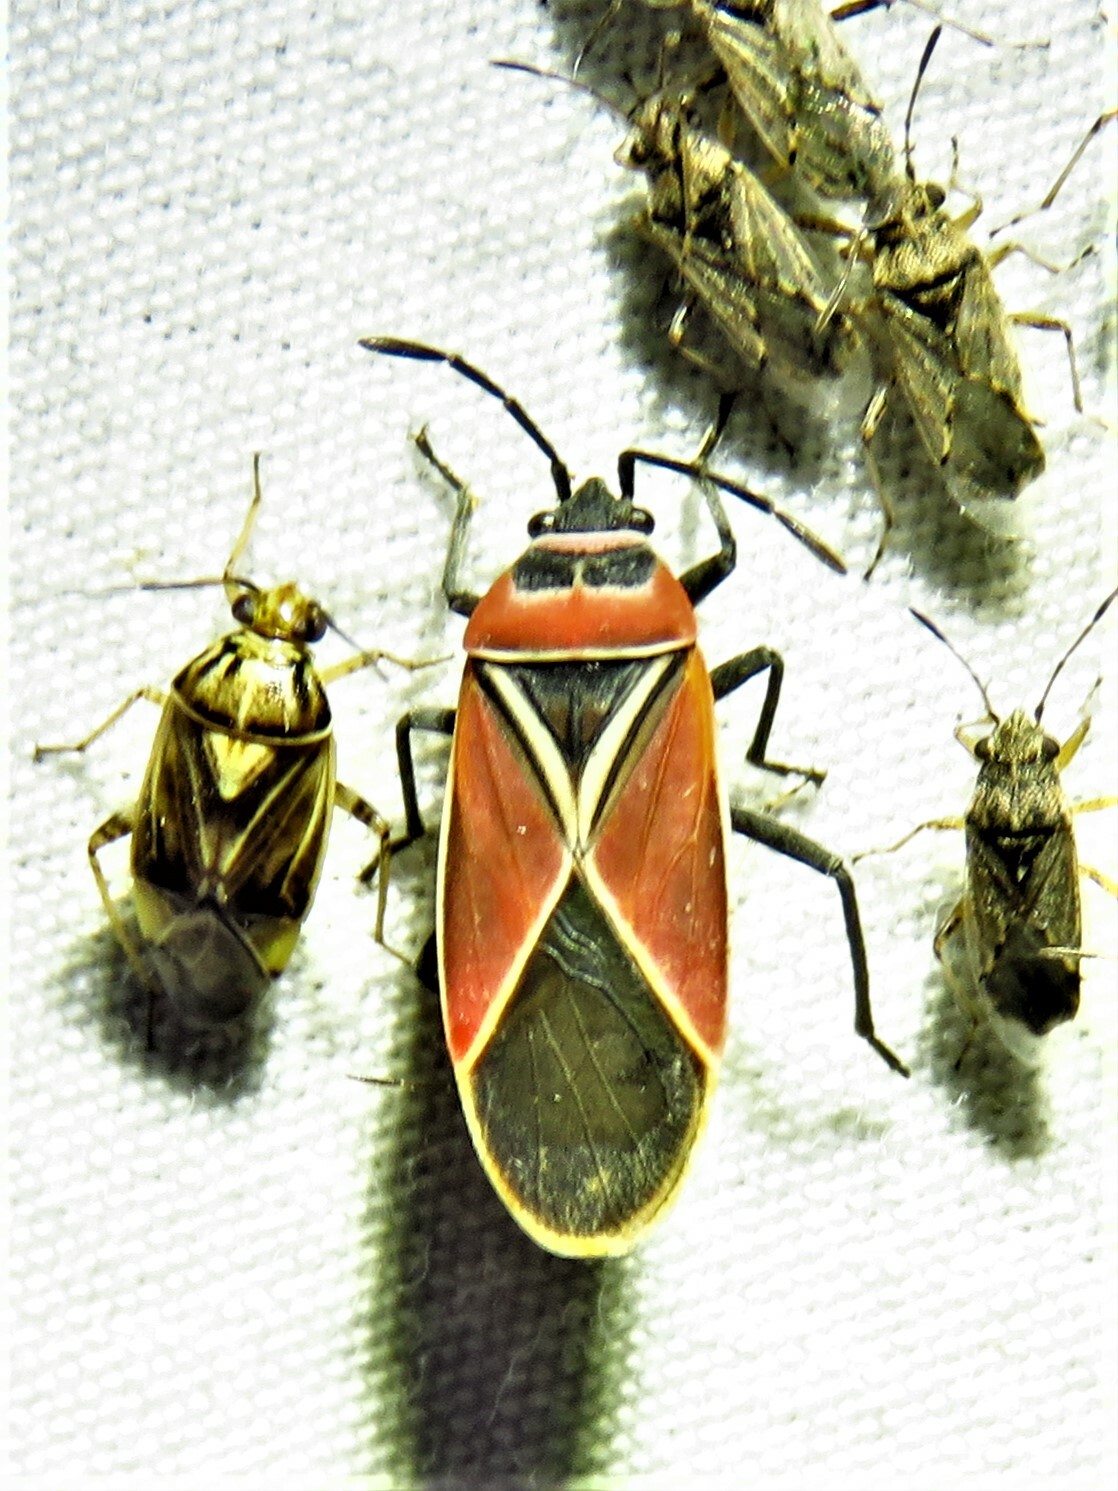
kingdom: Animalia
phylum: Arthropoda
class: Insecta
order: Hemiptera
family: Lygaeidae
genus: Neacoryphus
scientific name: Neacoryphus bicrucis
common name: Lygaeid bug
